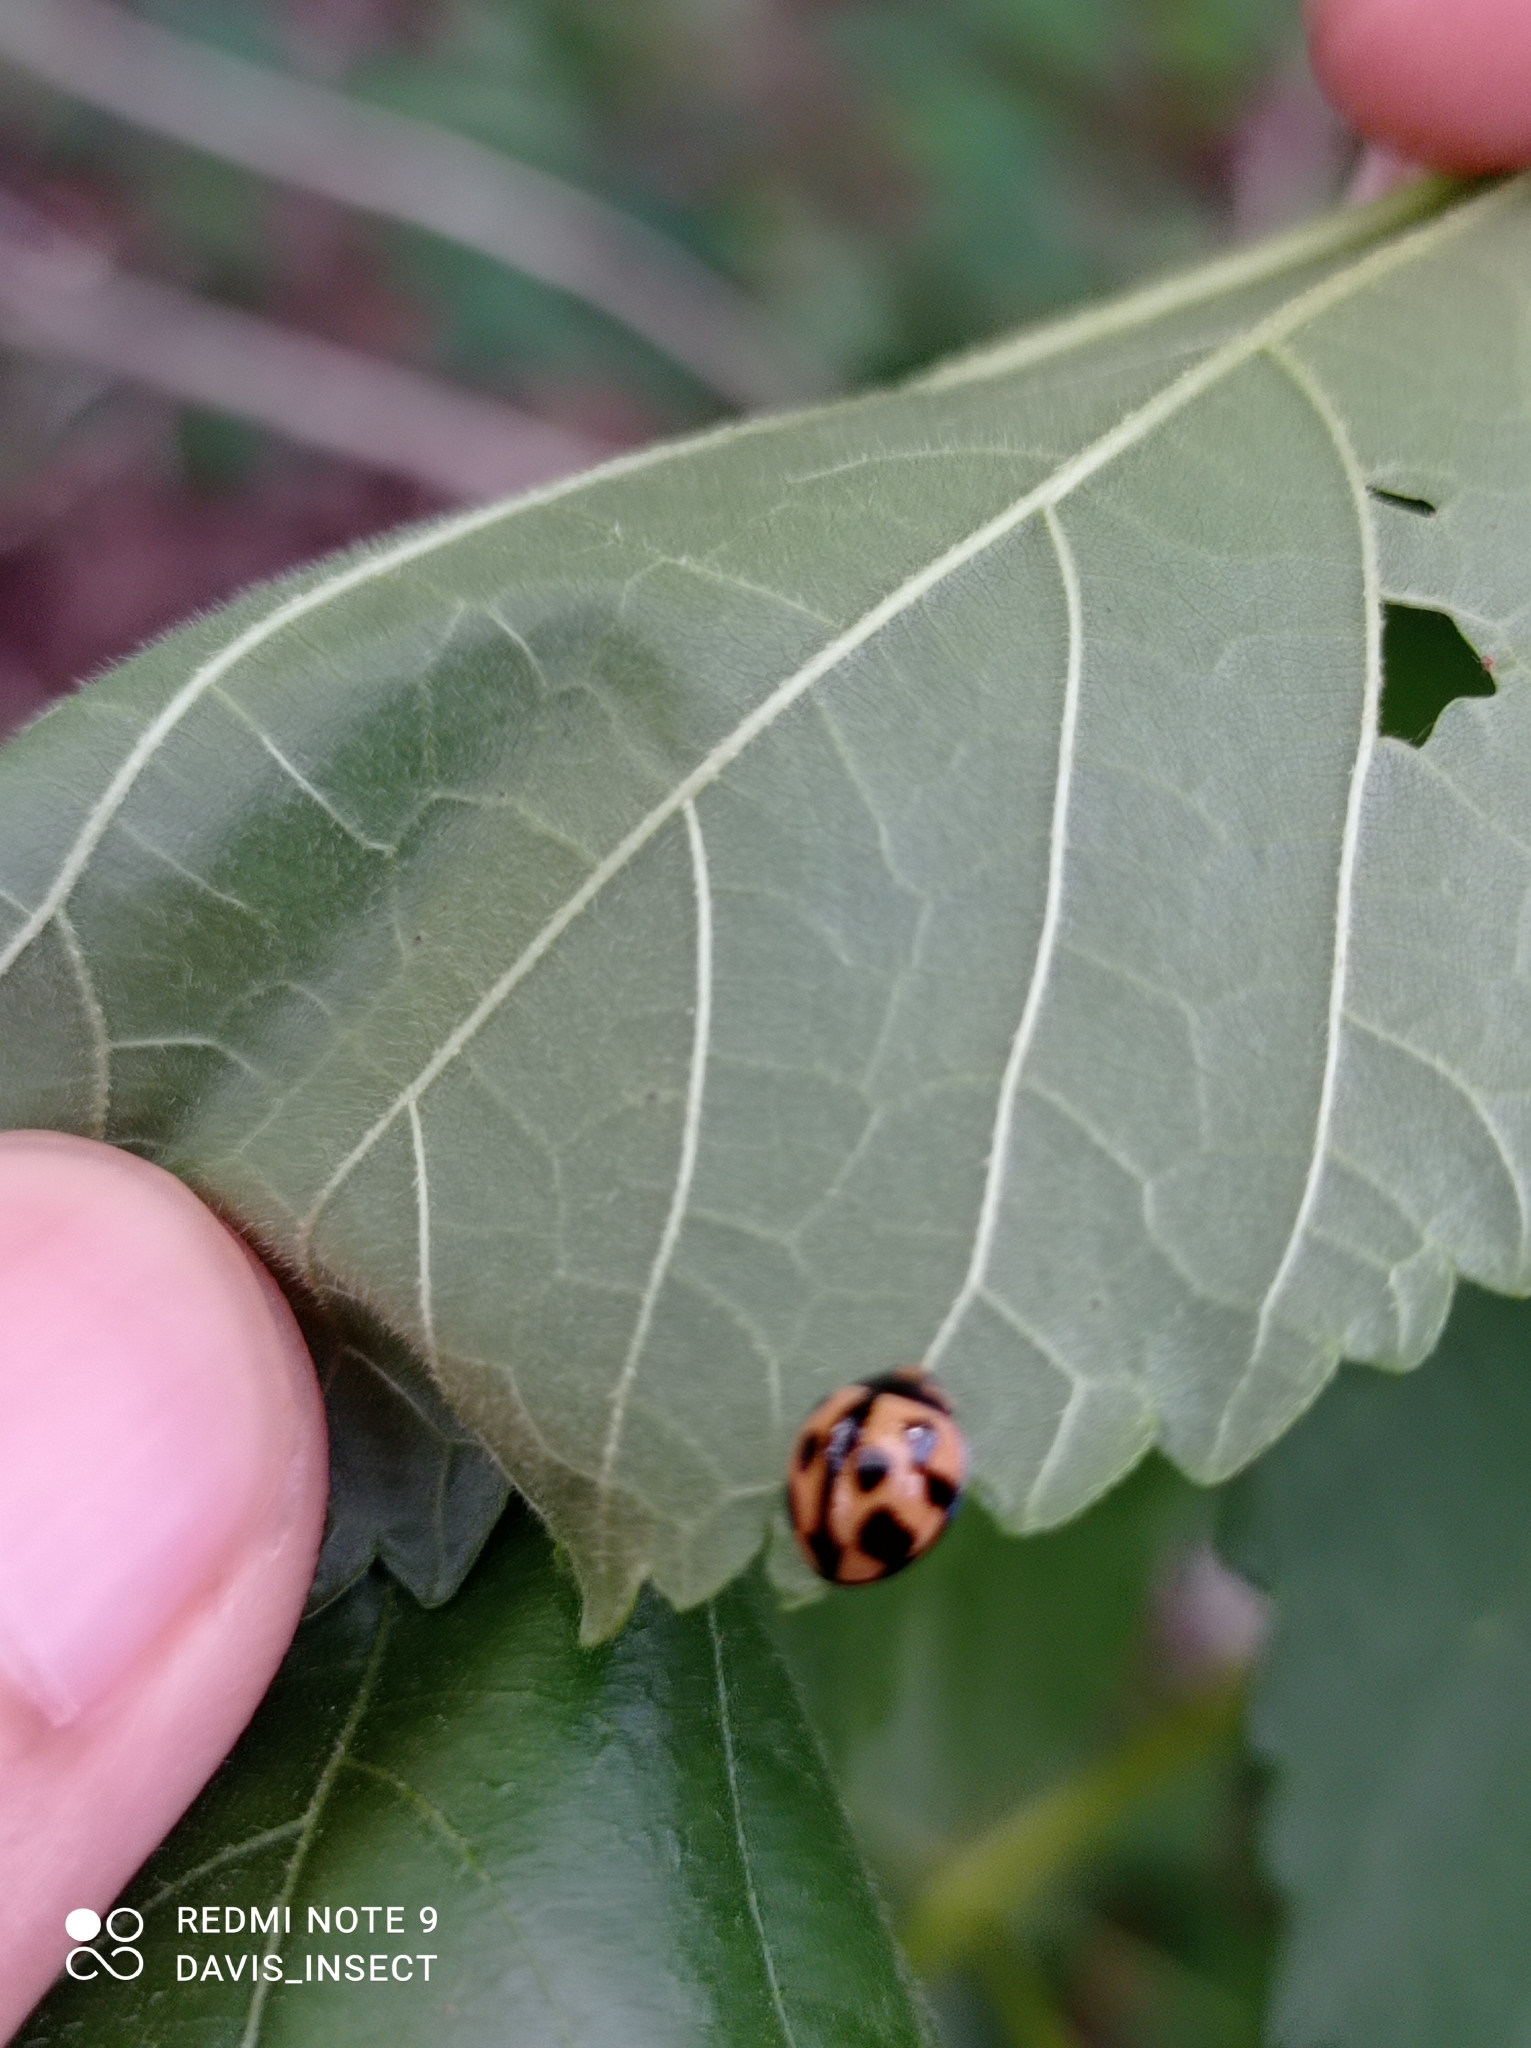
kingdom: Animalia
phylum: Arthropoda
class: Insecta
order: Coleoptera
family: Coccinellidae
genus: Coelophora
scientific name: Coelophora inaequalis
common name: Common australian lady beetle
